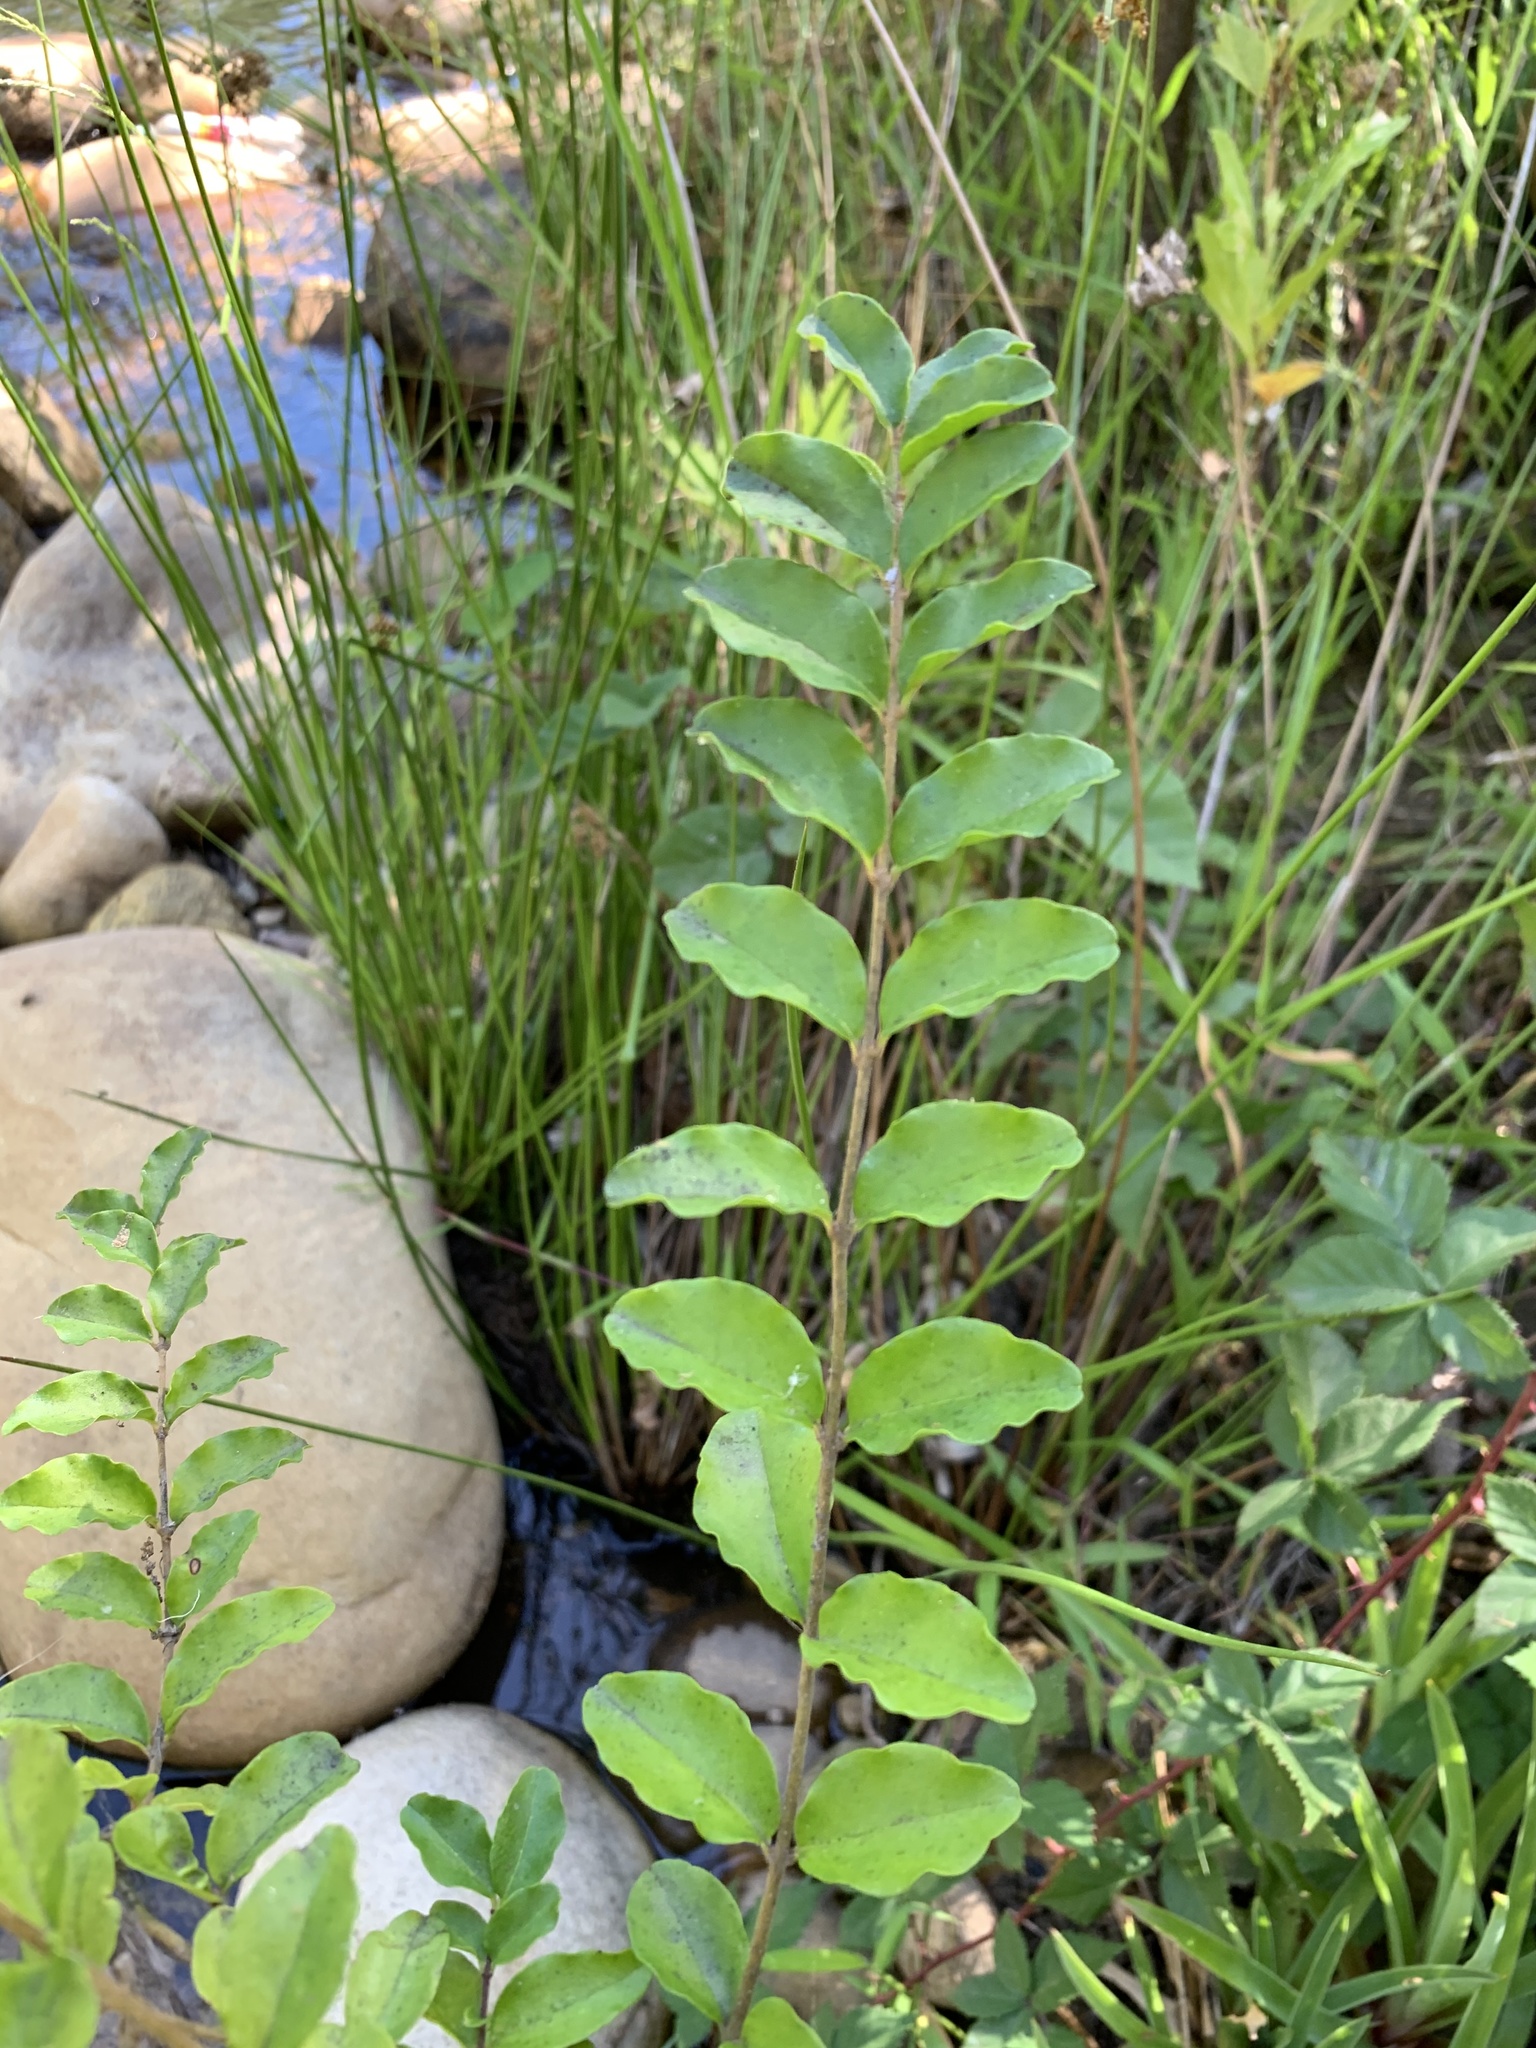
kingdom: Plantae
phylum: Tracheophyta
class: Magnoliopsida
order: Lamiales
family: Oleaceae
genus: Ligustrum
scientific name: Ligustrum sinense
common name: Chinese privet
